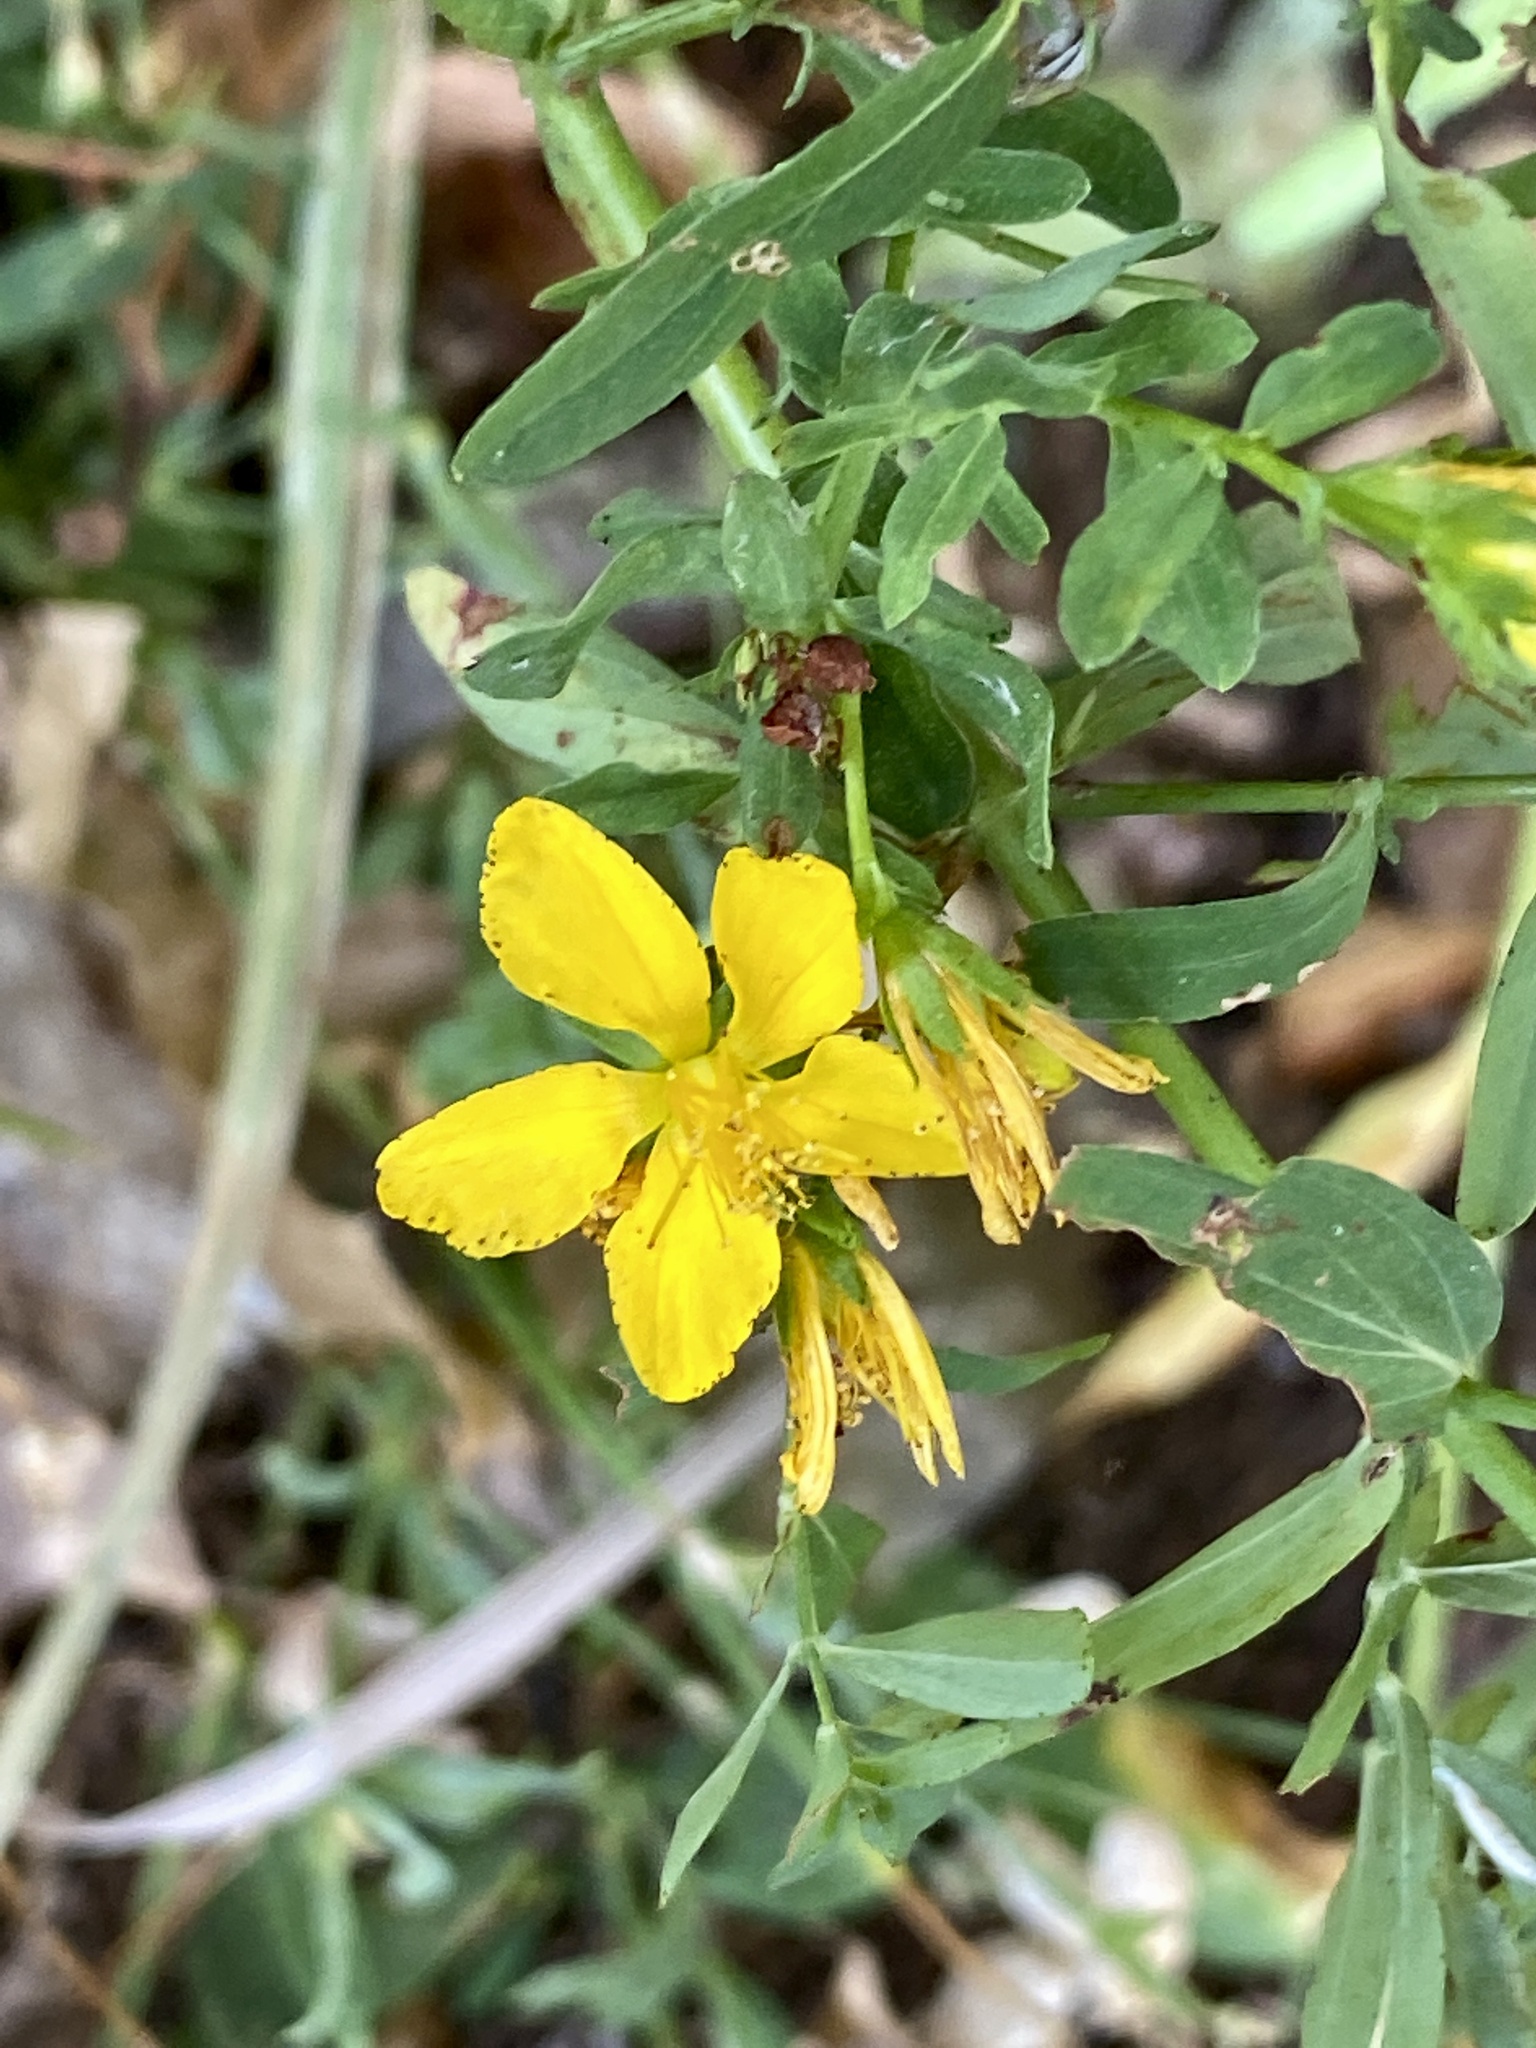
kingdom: Plantae
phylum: Tracheophyta
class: Magnoliopsida
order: Malpighiales
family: Hypericaceae
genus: Hypericum
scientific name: Hypericum perforatum
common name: Common st. johnswort
